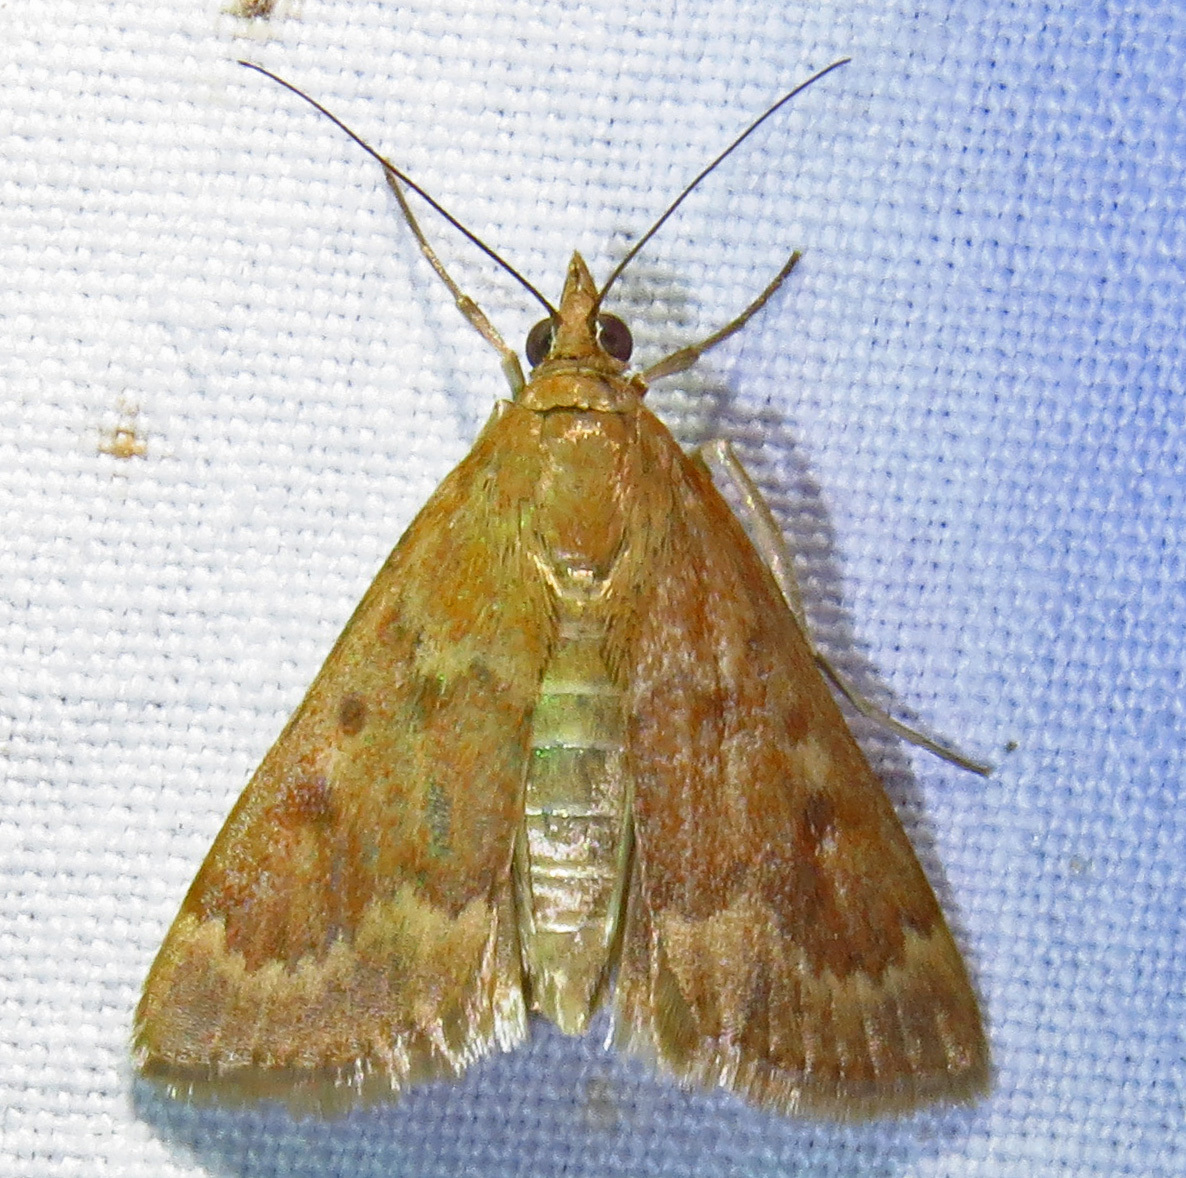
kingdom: Animalia
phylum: Arthropoda
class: Insecta
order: Lepidoptera
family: Crambidae
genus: Achyra
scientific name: Achyra rantalis
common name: Garden webworm
